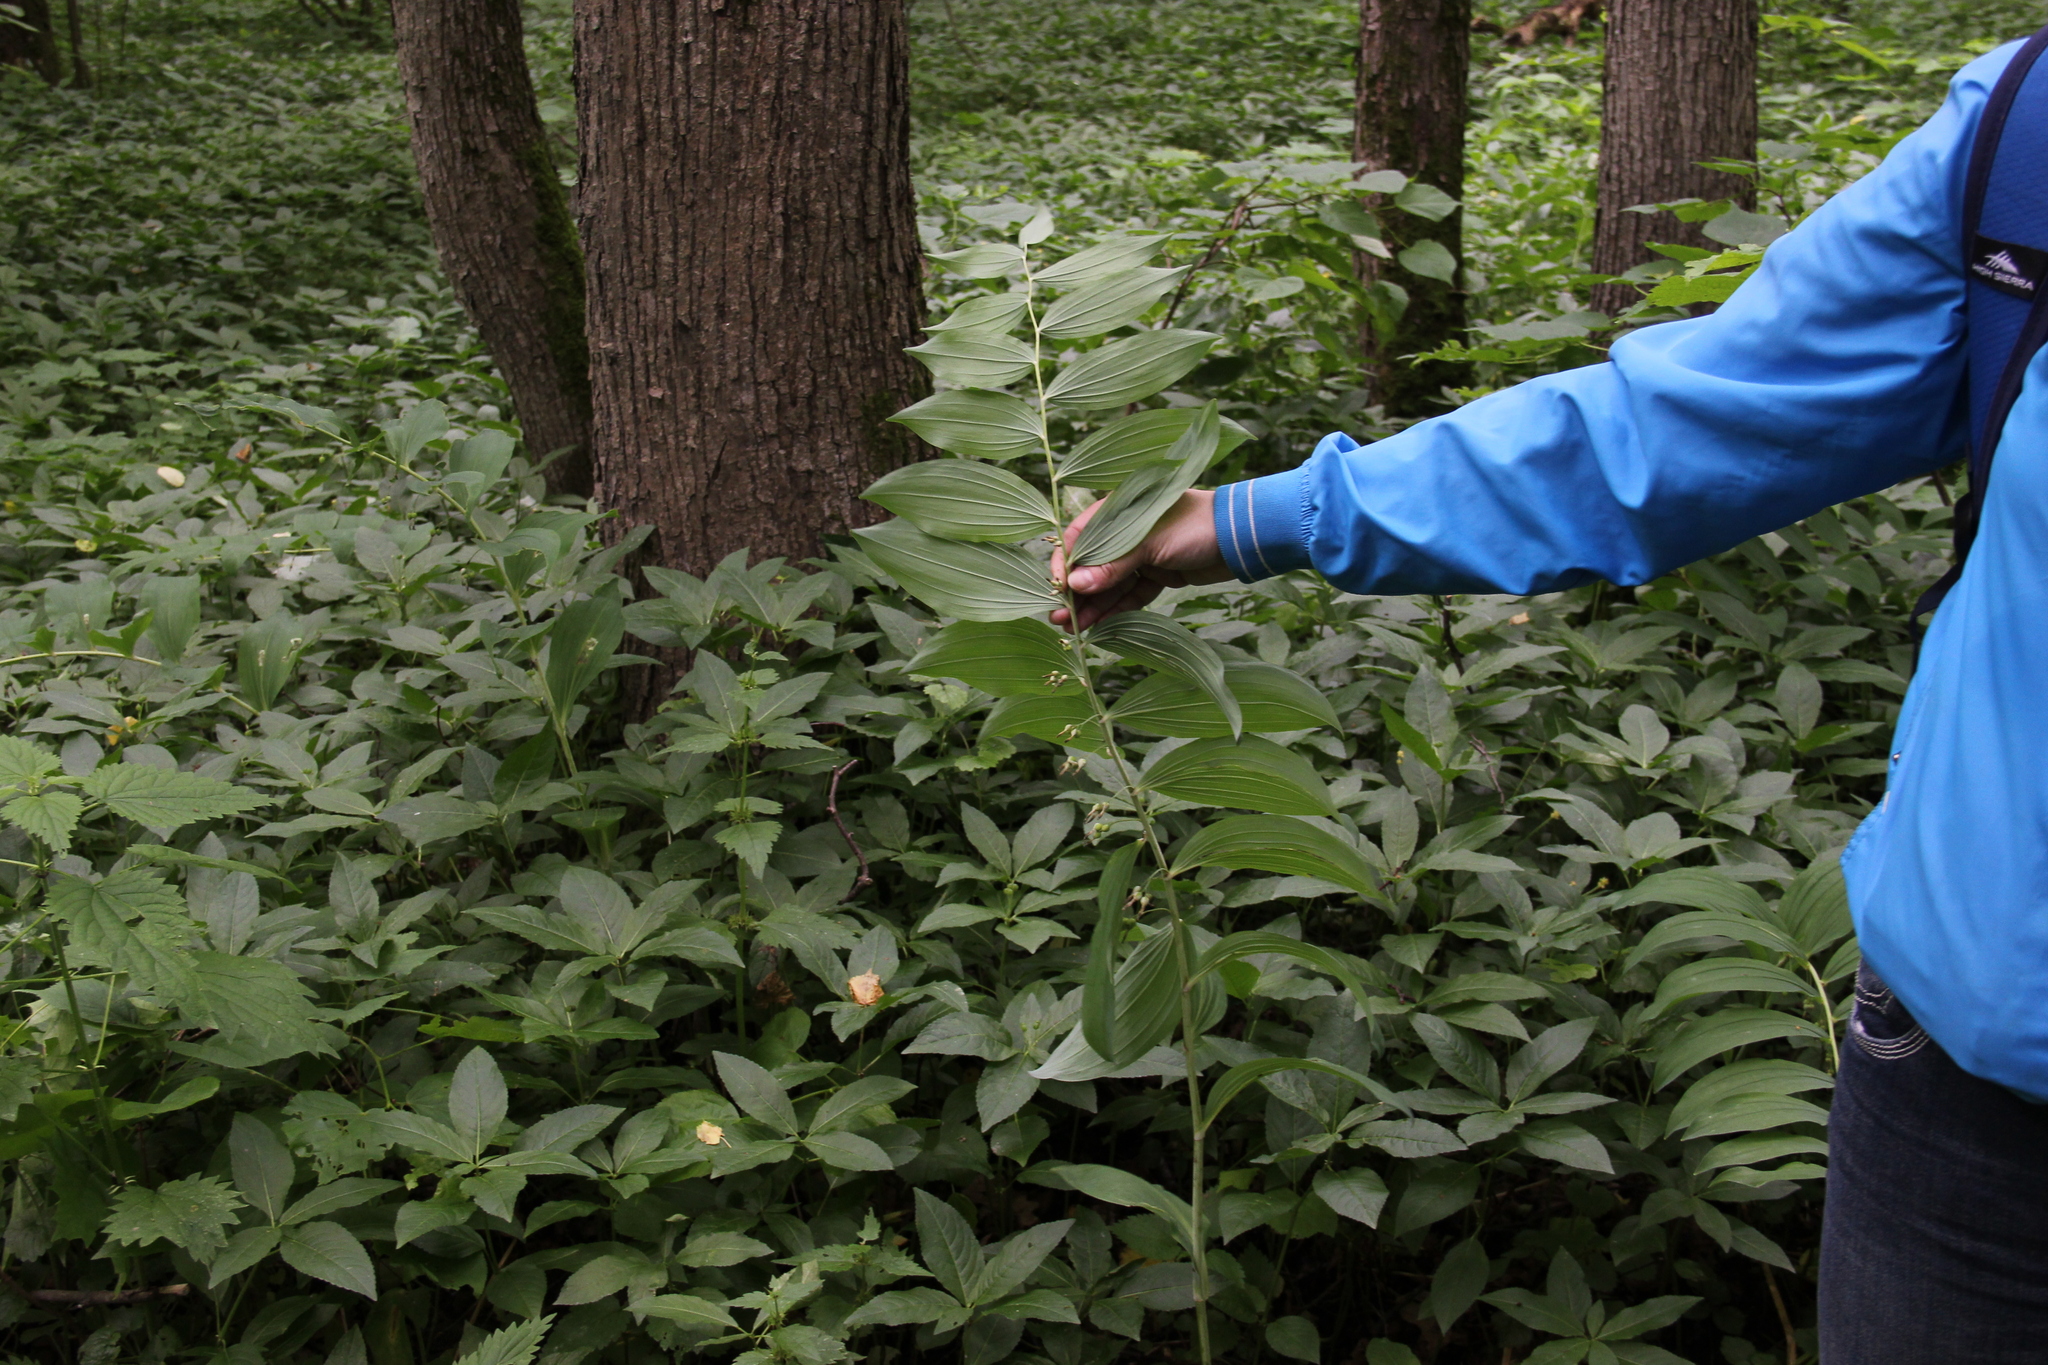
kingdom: Plantae
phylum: Tracheophyta
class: Liliopsida
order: Asparagales
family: Asparagaceae
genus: Polygonatum
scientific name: Polygonatum multiflorum
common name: Solomon's-seal
